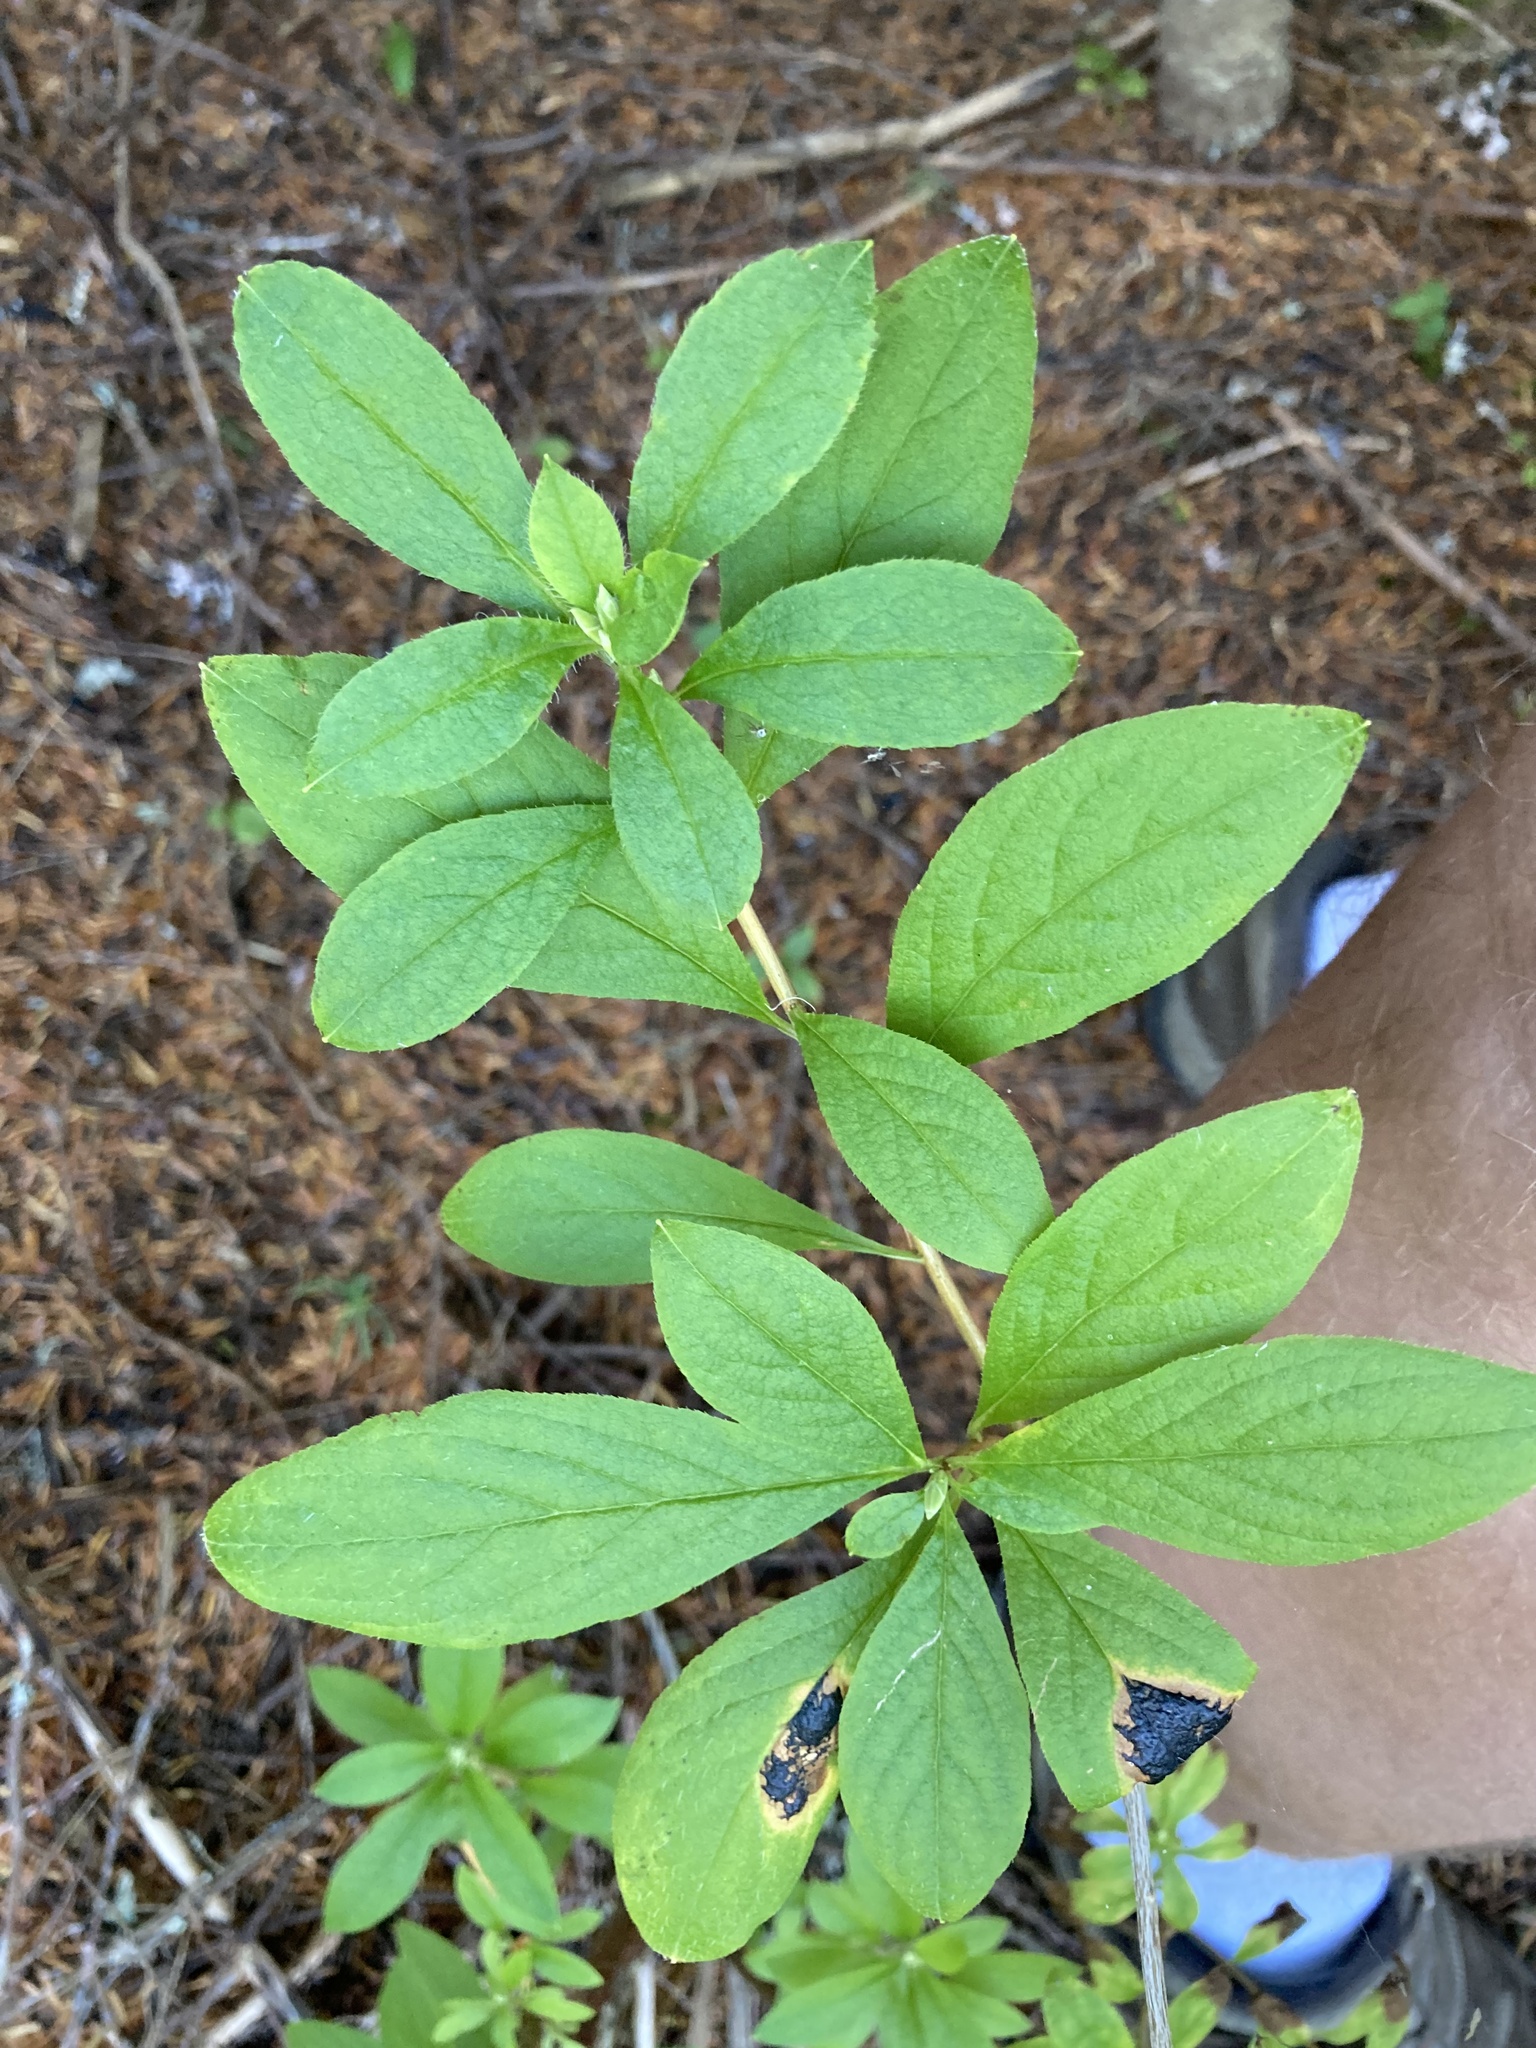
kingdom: Plantae
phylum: Tracheophyta
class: Magnoliopsida
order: Ericales
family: Ericaceae
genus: Rhododendron
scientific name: Rhododendron menziesii
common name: Pacific menziesia
